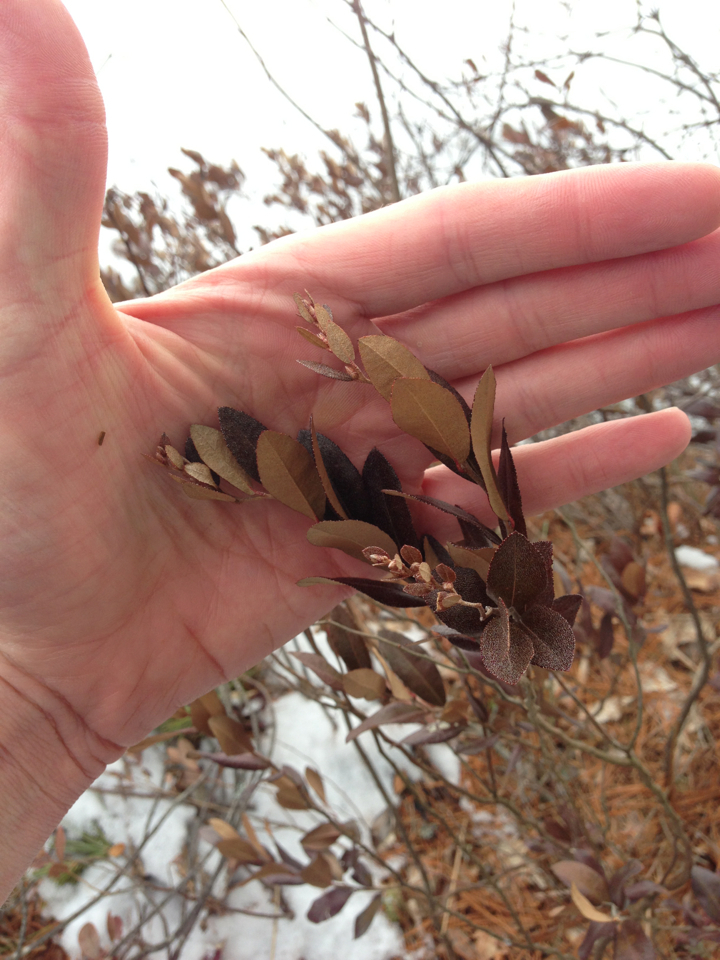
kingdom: Plantae
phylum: Tracheophyta
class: Magnoliopsida
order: Ericales
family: Ericaceae
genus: Chamaedaphne
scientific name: Chamaedaphne calyculata
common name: Leatherleaf
